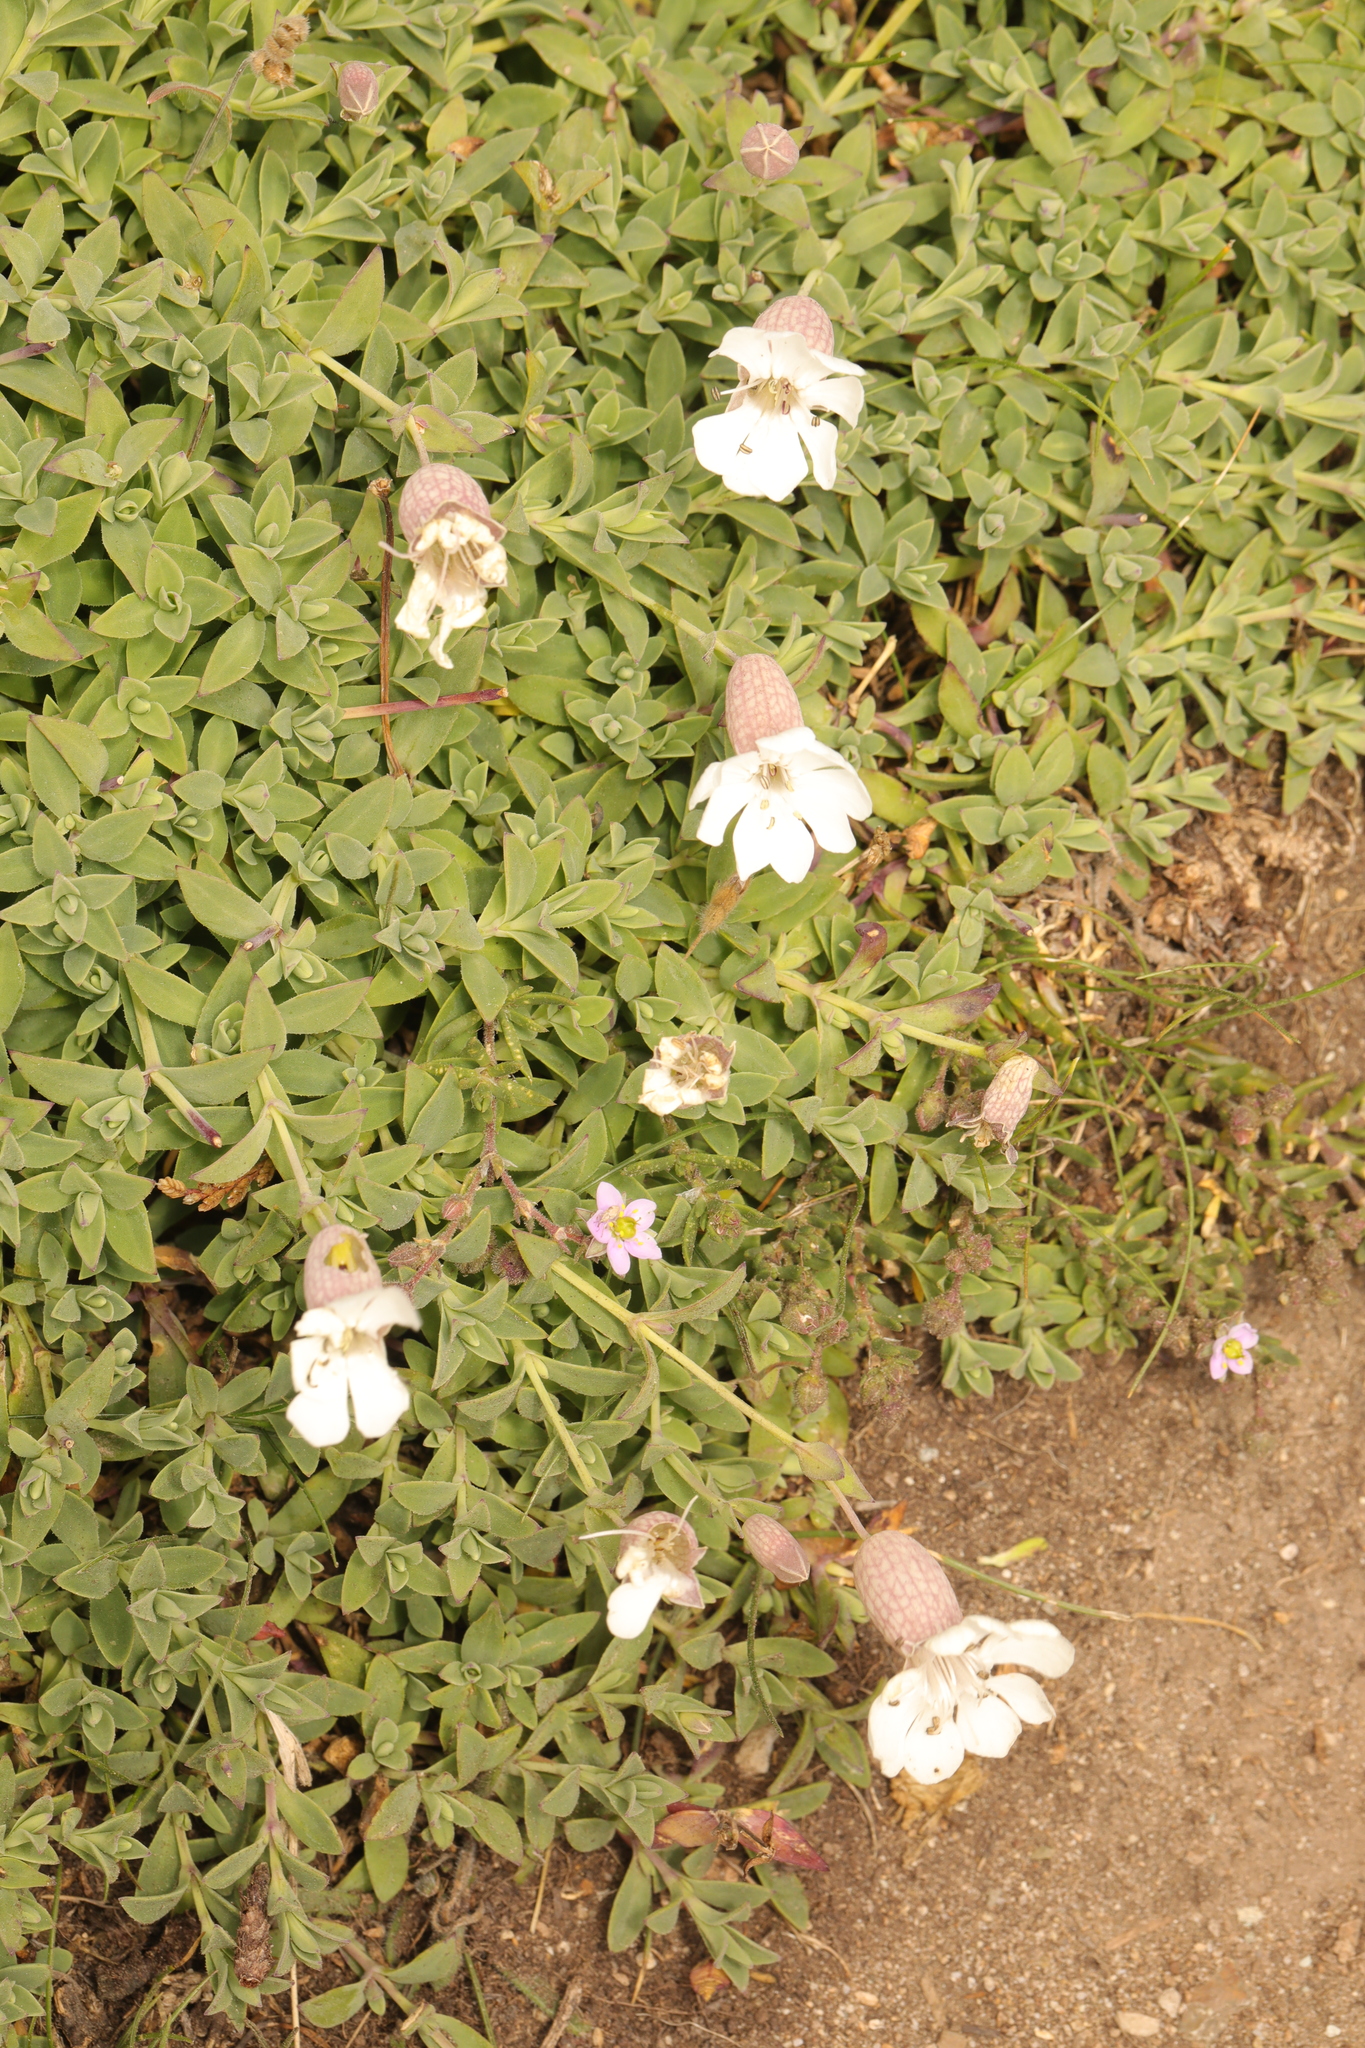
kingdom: Plantae
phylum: Tracheophyta
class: Magnoliopsida
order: Caryophyllales
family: Caryophyllaceae
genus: Silene
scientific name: Silene uniflora
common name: Sea campion
